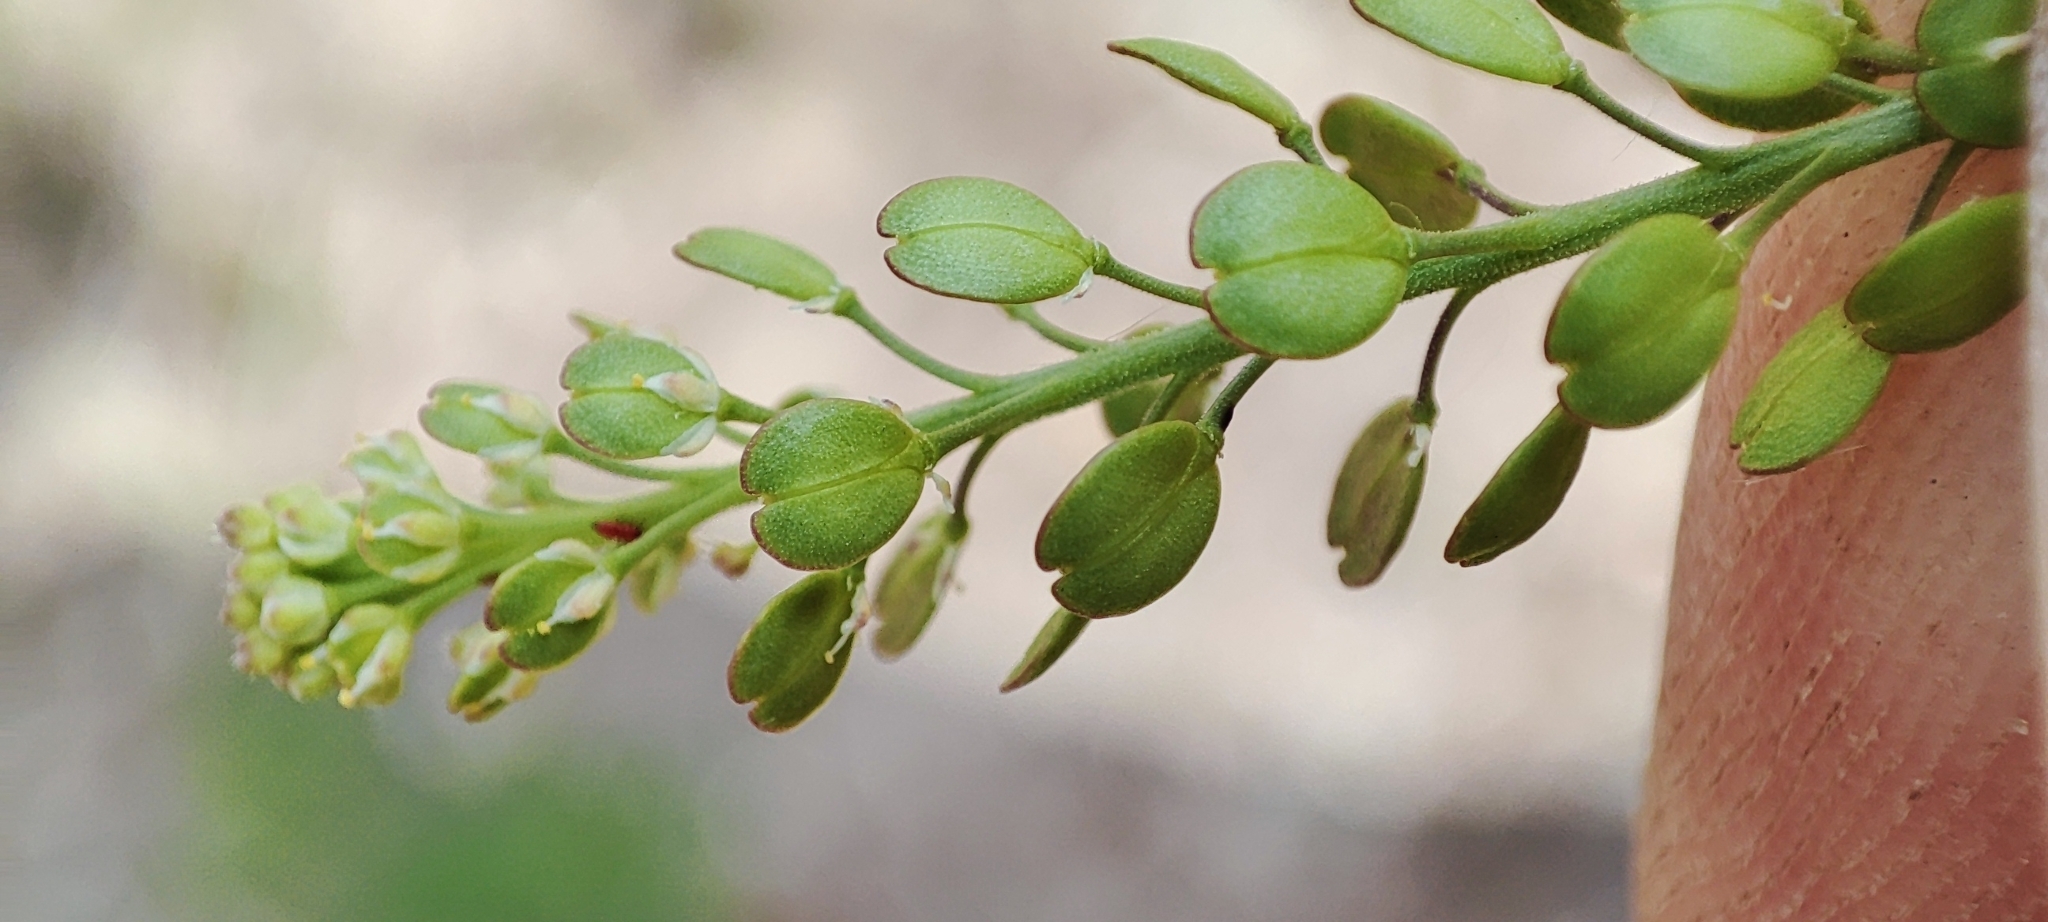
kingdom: Plantae
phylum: Tracheophyta
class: Magnoliopsida
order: Brassicales
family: Brassicaceae
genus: Lepidium
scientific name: Lepidium densiflorum
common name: Miner's pepperwort
